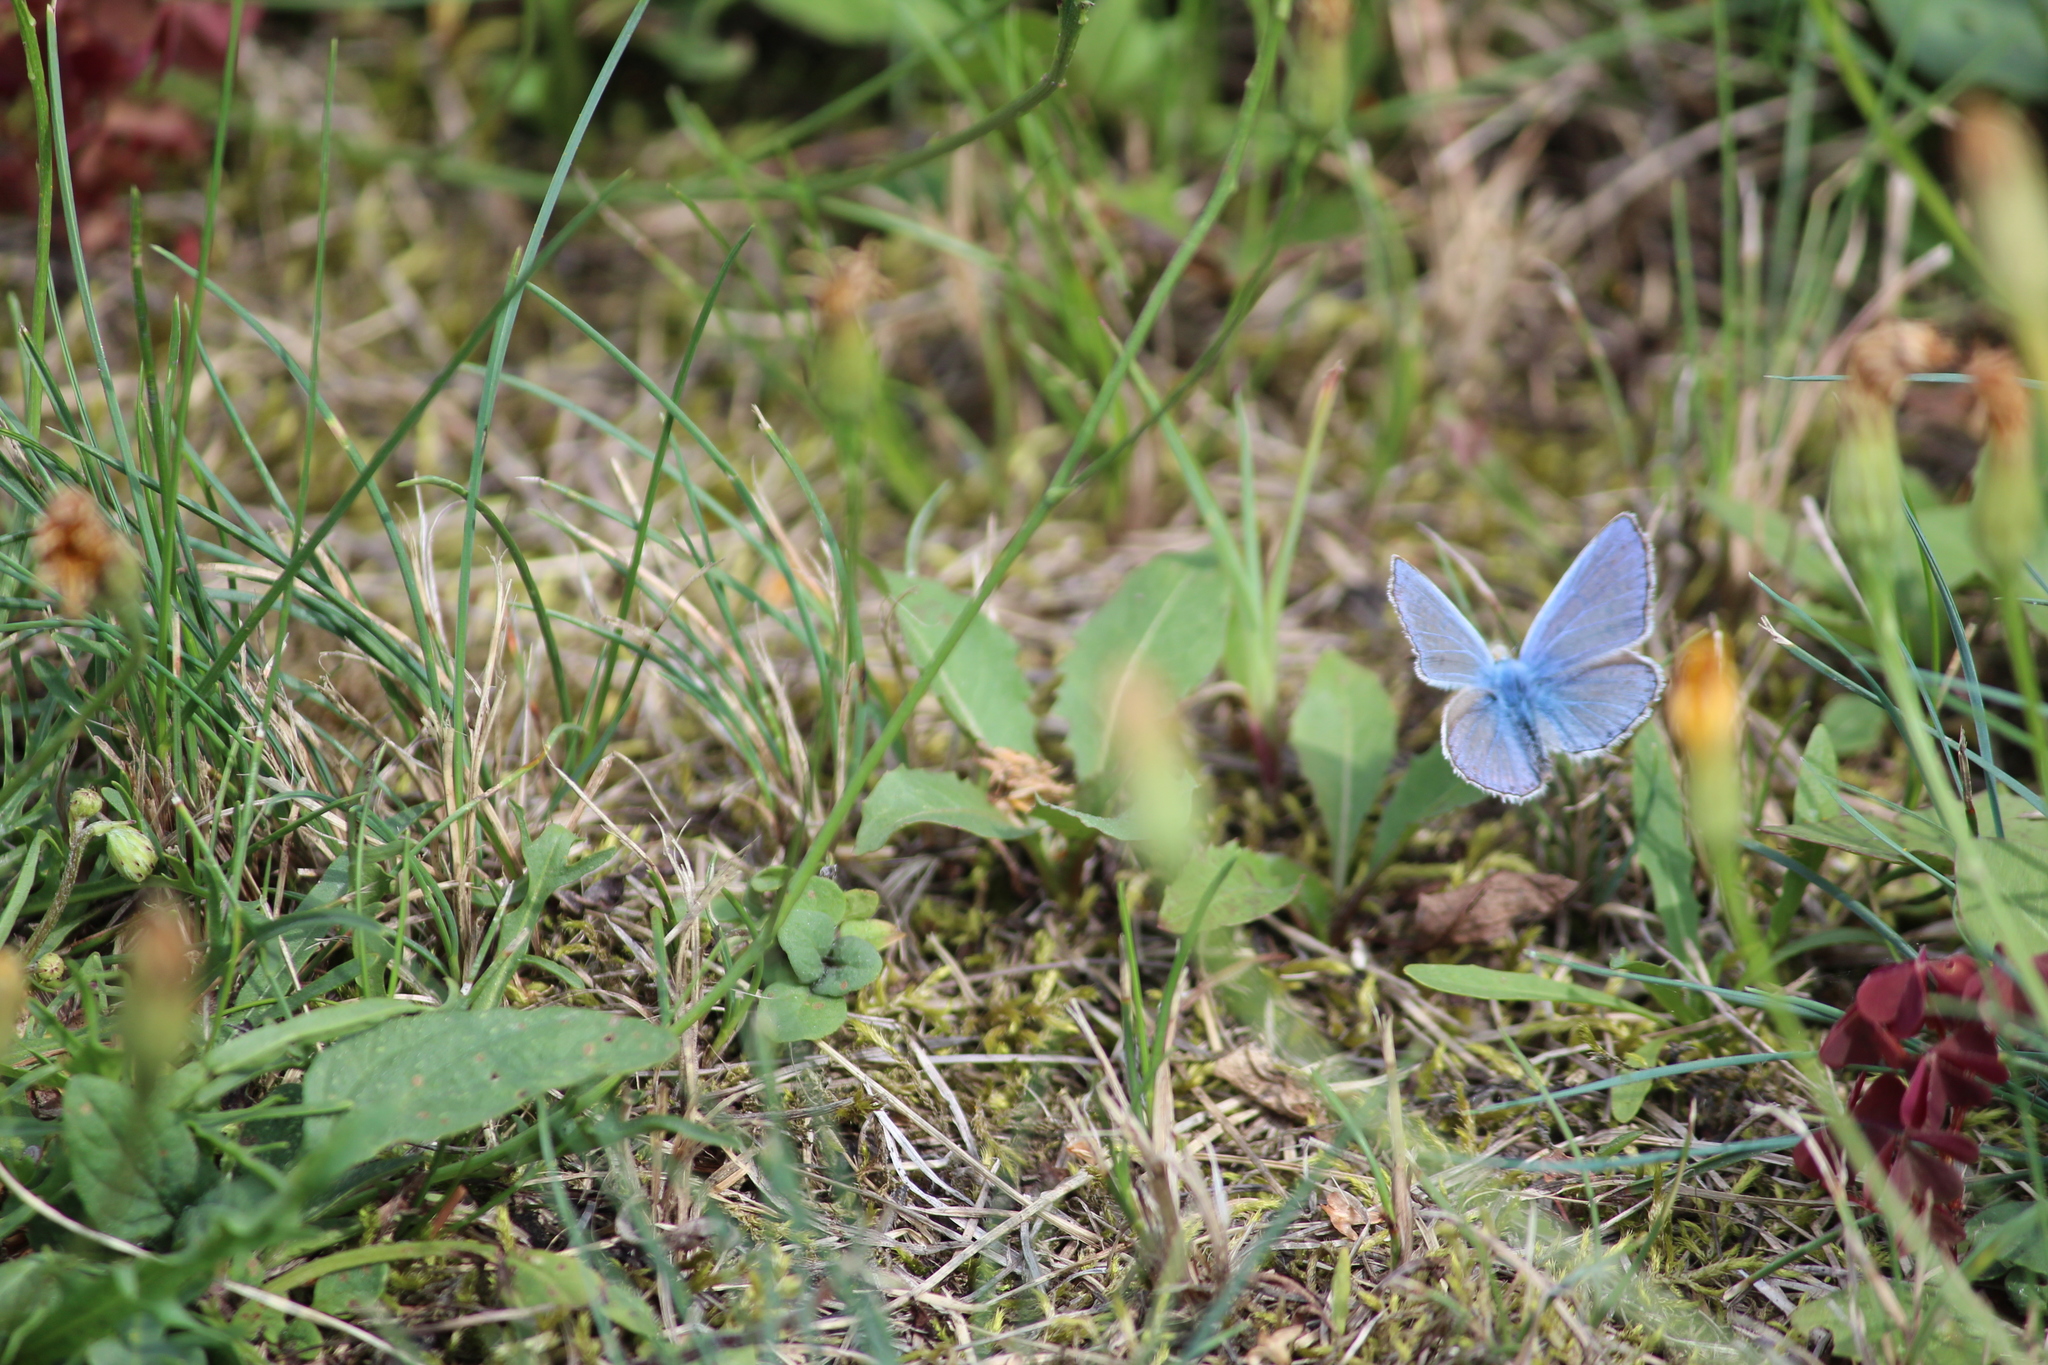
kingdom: Animalia
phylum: Arthropoda
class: Insecta
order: Lepidoptera
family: Lycaenidae
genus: Polyommatus
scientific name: Polyommatus icarus
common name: Common blue
